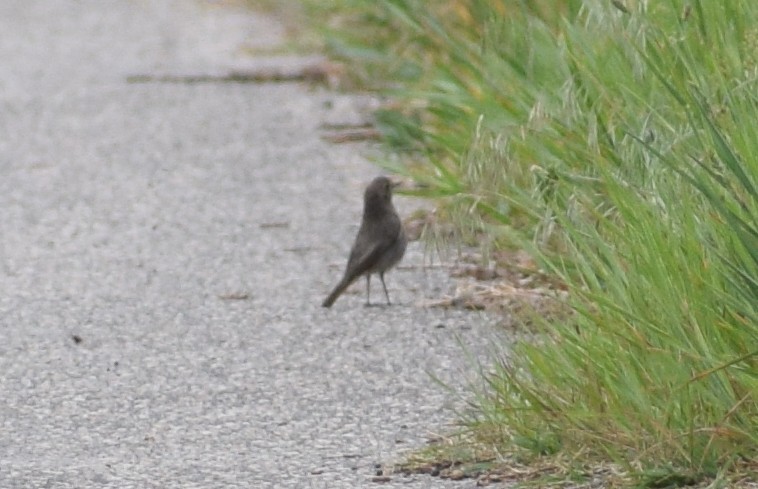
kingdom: Animalia
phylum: Chordata
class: Aves
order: Passeriformes
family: Muscicapidae
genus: Phoenicurus
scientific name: Phoenicurus ochruros
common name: Black redstart
